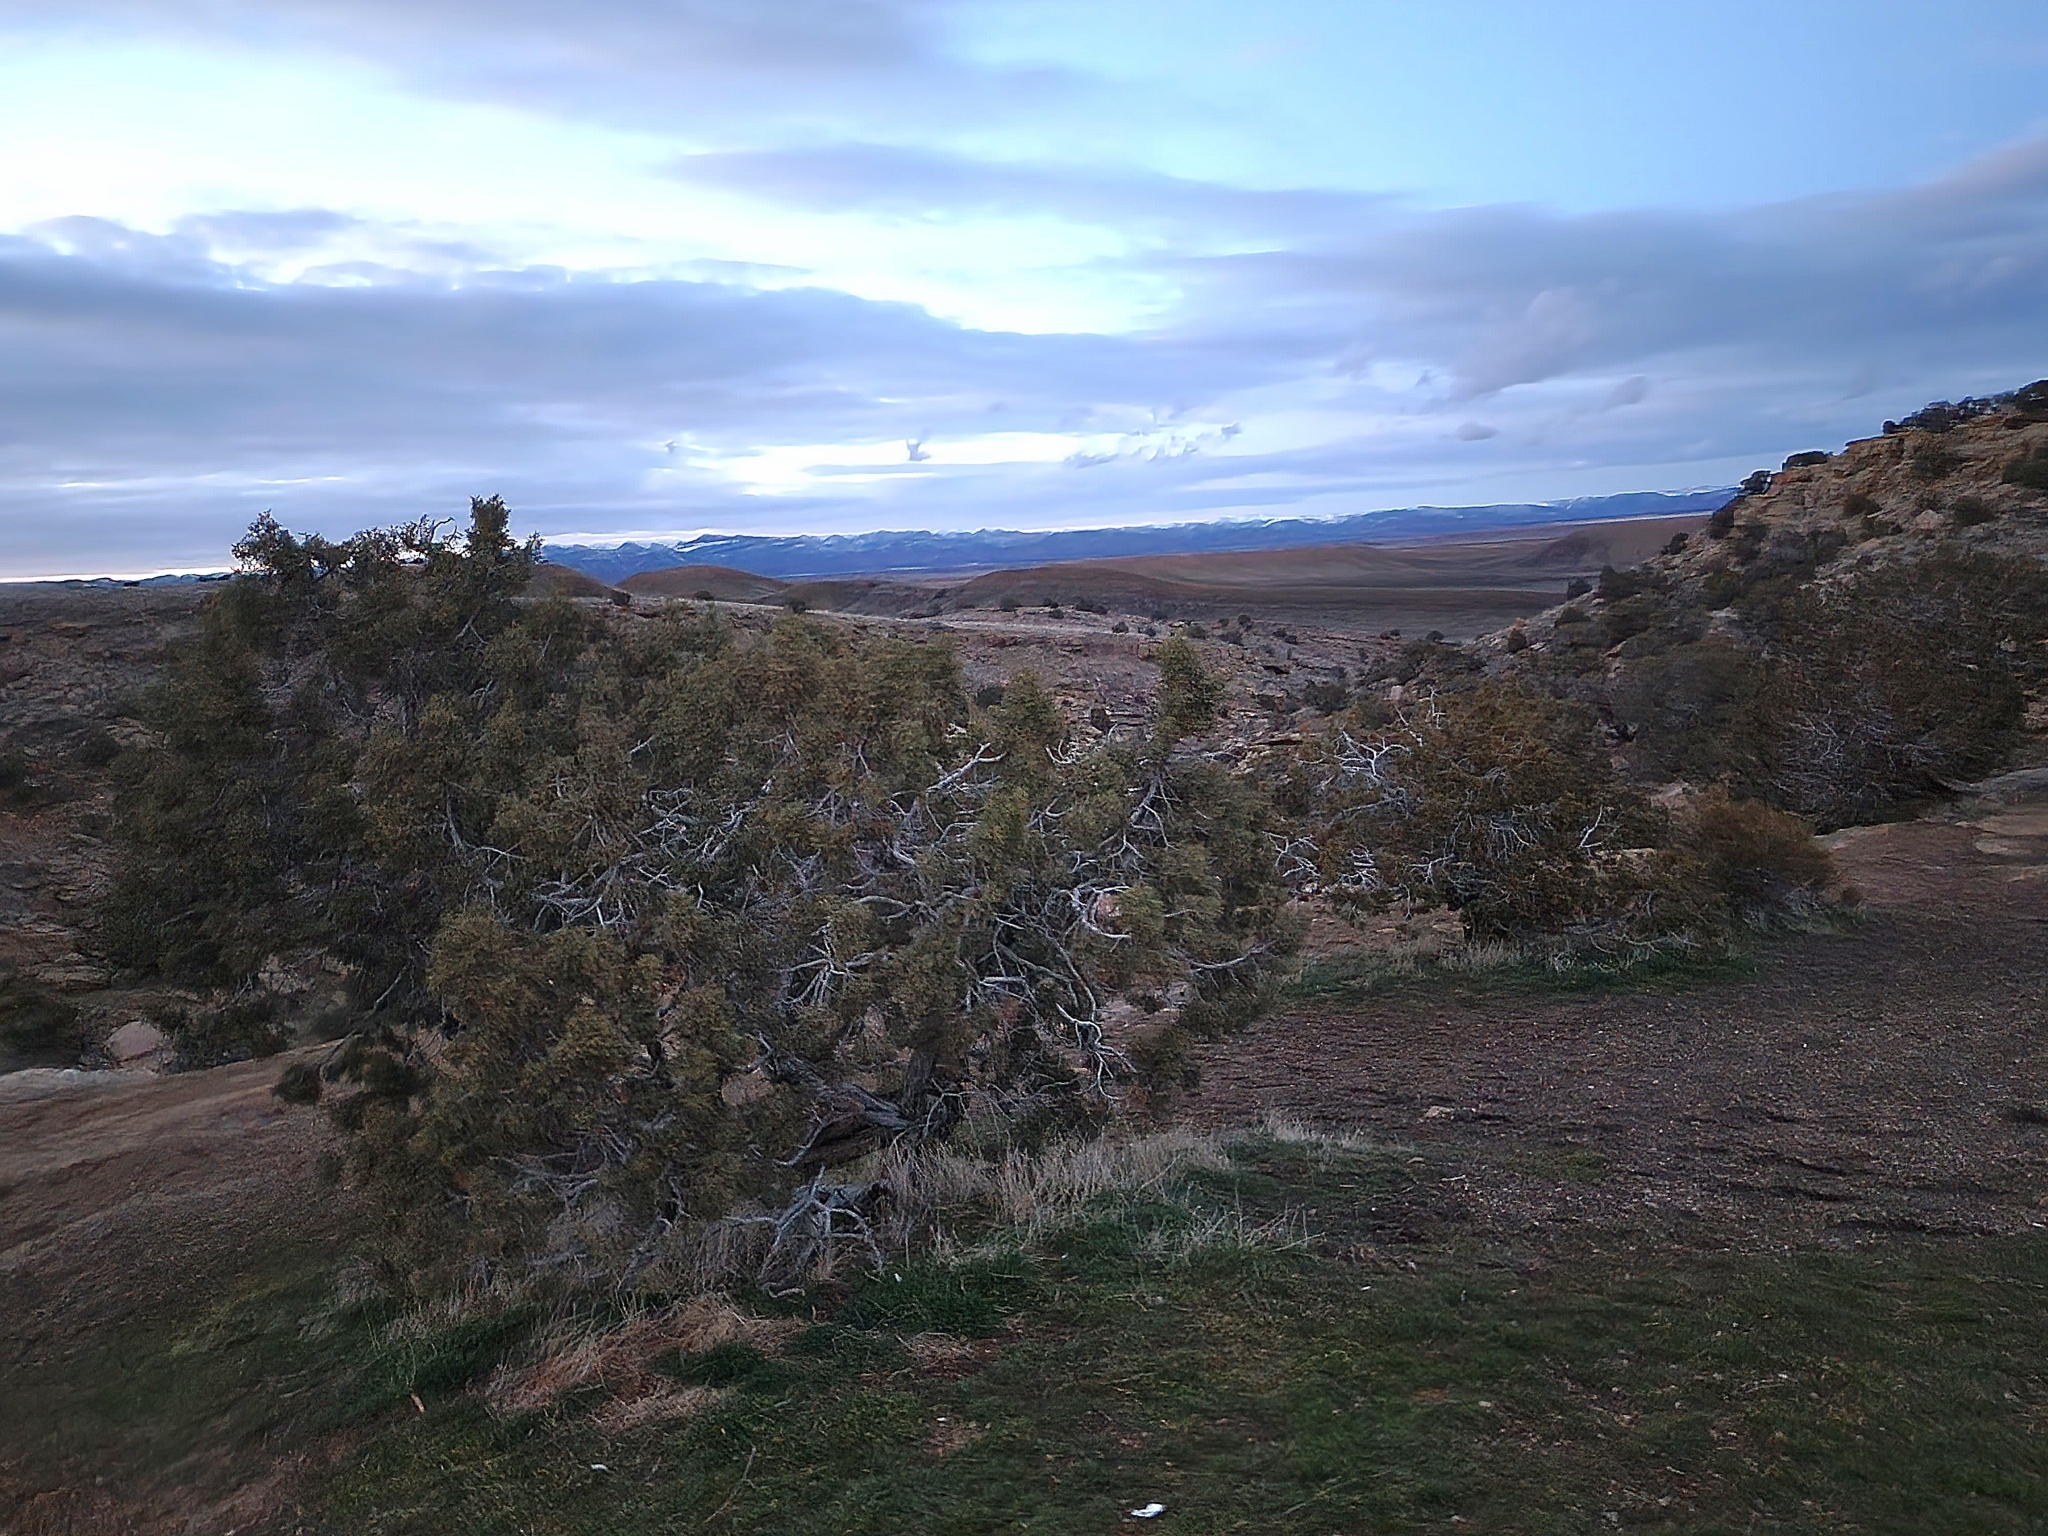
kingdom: Plantae
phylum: Tracheophyta
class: Pinopsida
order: Pinales
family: Cupressaceae
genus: Juniperus
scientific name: Juniperus osteosperma
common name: Utah juniper
